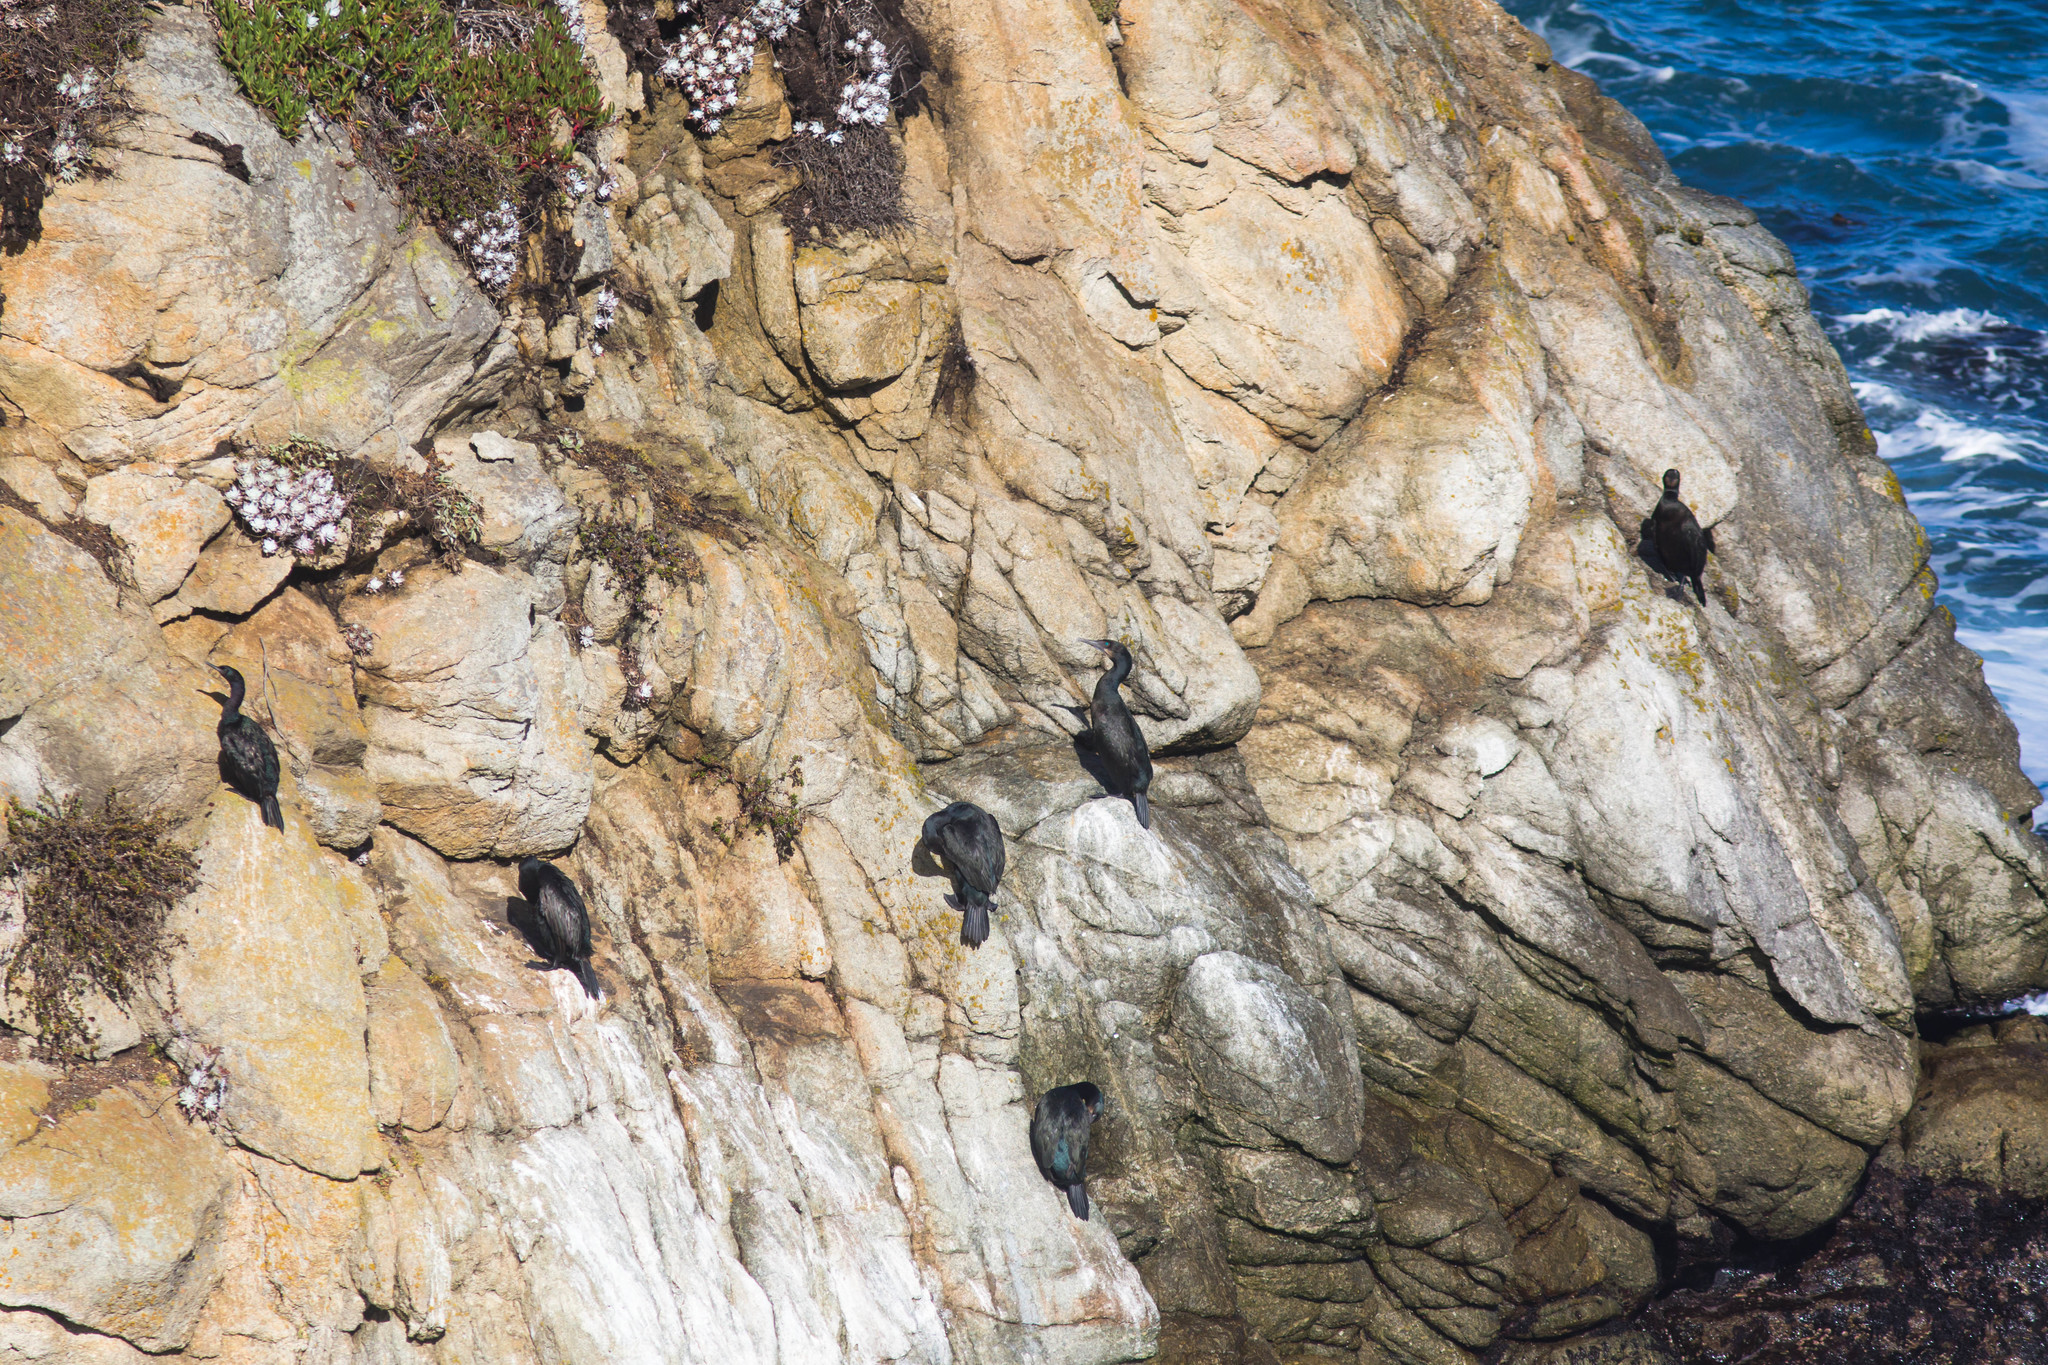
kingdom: Animalia
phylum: Chordata
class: Aves
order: Suliformes
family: Phalacrocoracidae
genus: Urile
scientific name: Urile penicillatus
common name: Brandt's cormorant
